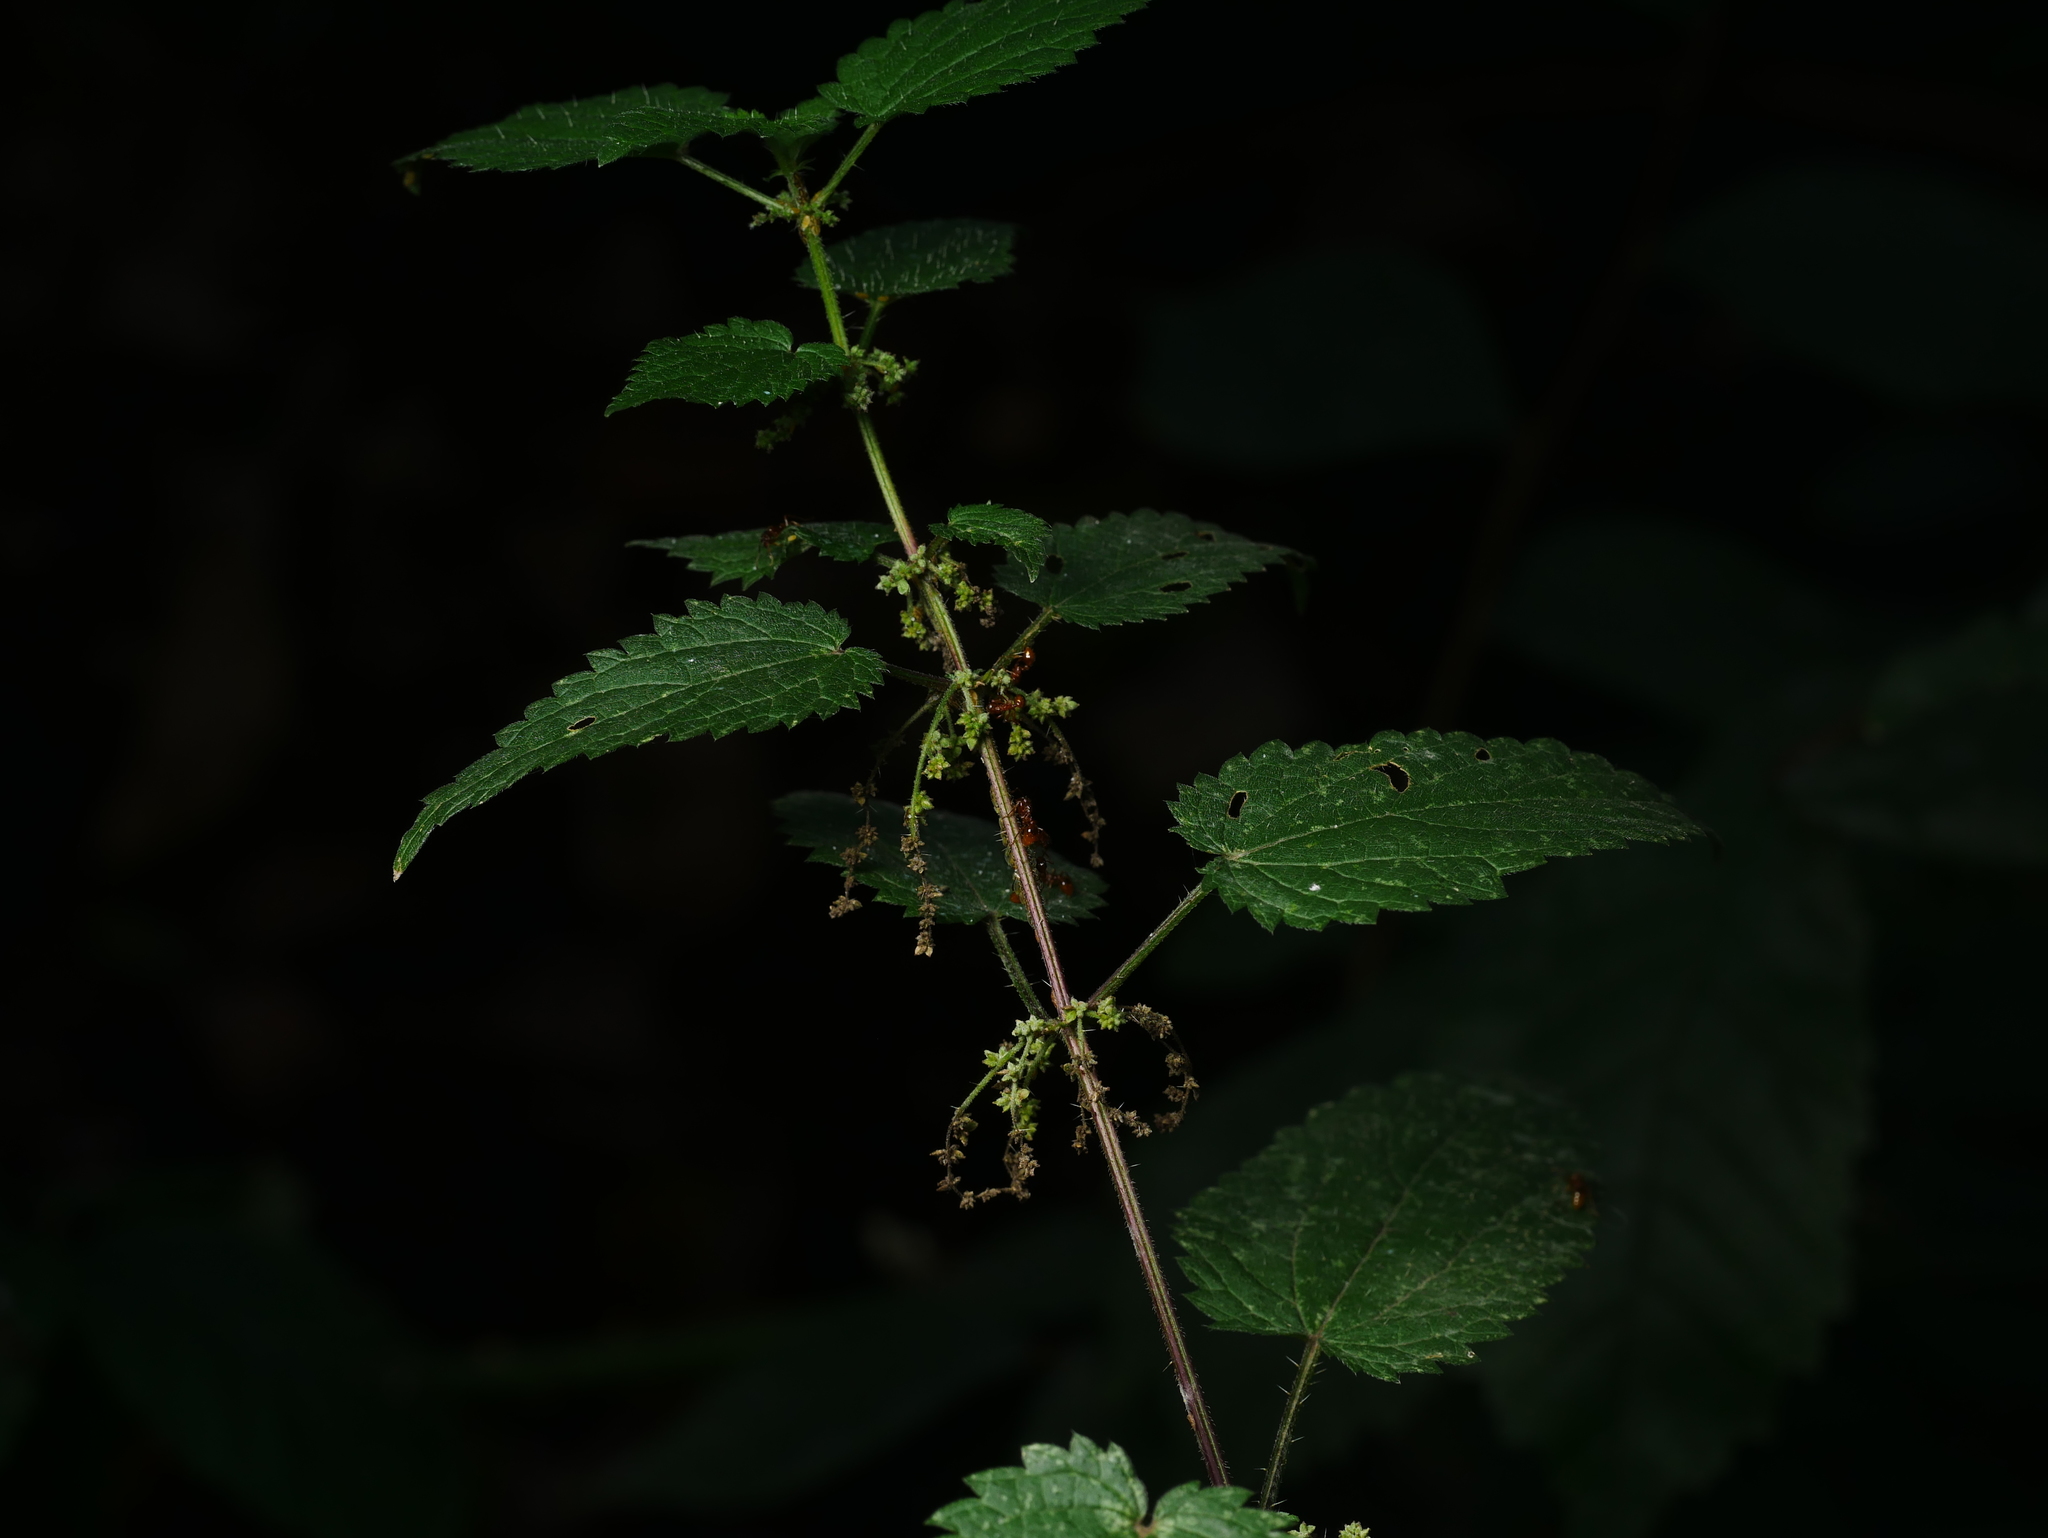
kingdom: Plantae
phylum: Tracheophyta
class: Magnoliopsida
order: Rosales
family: Urticaceae
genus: Urtica
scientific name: Urtica dioica
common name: Common nettle
